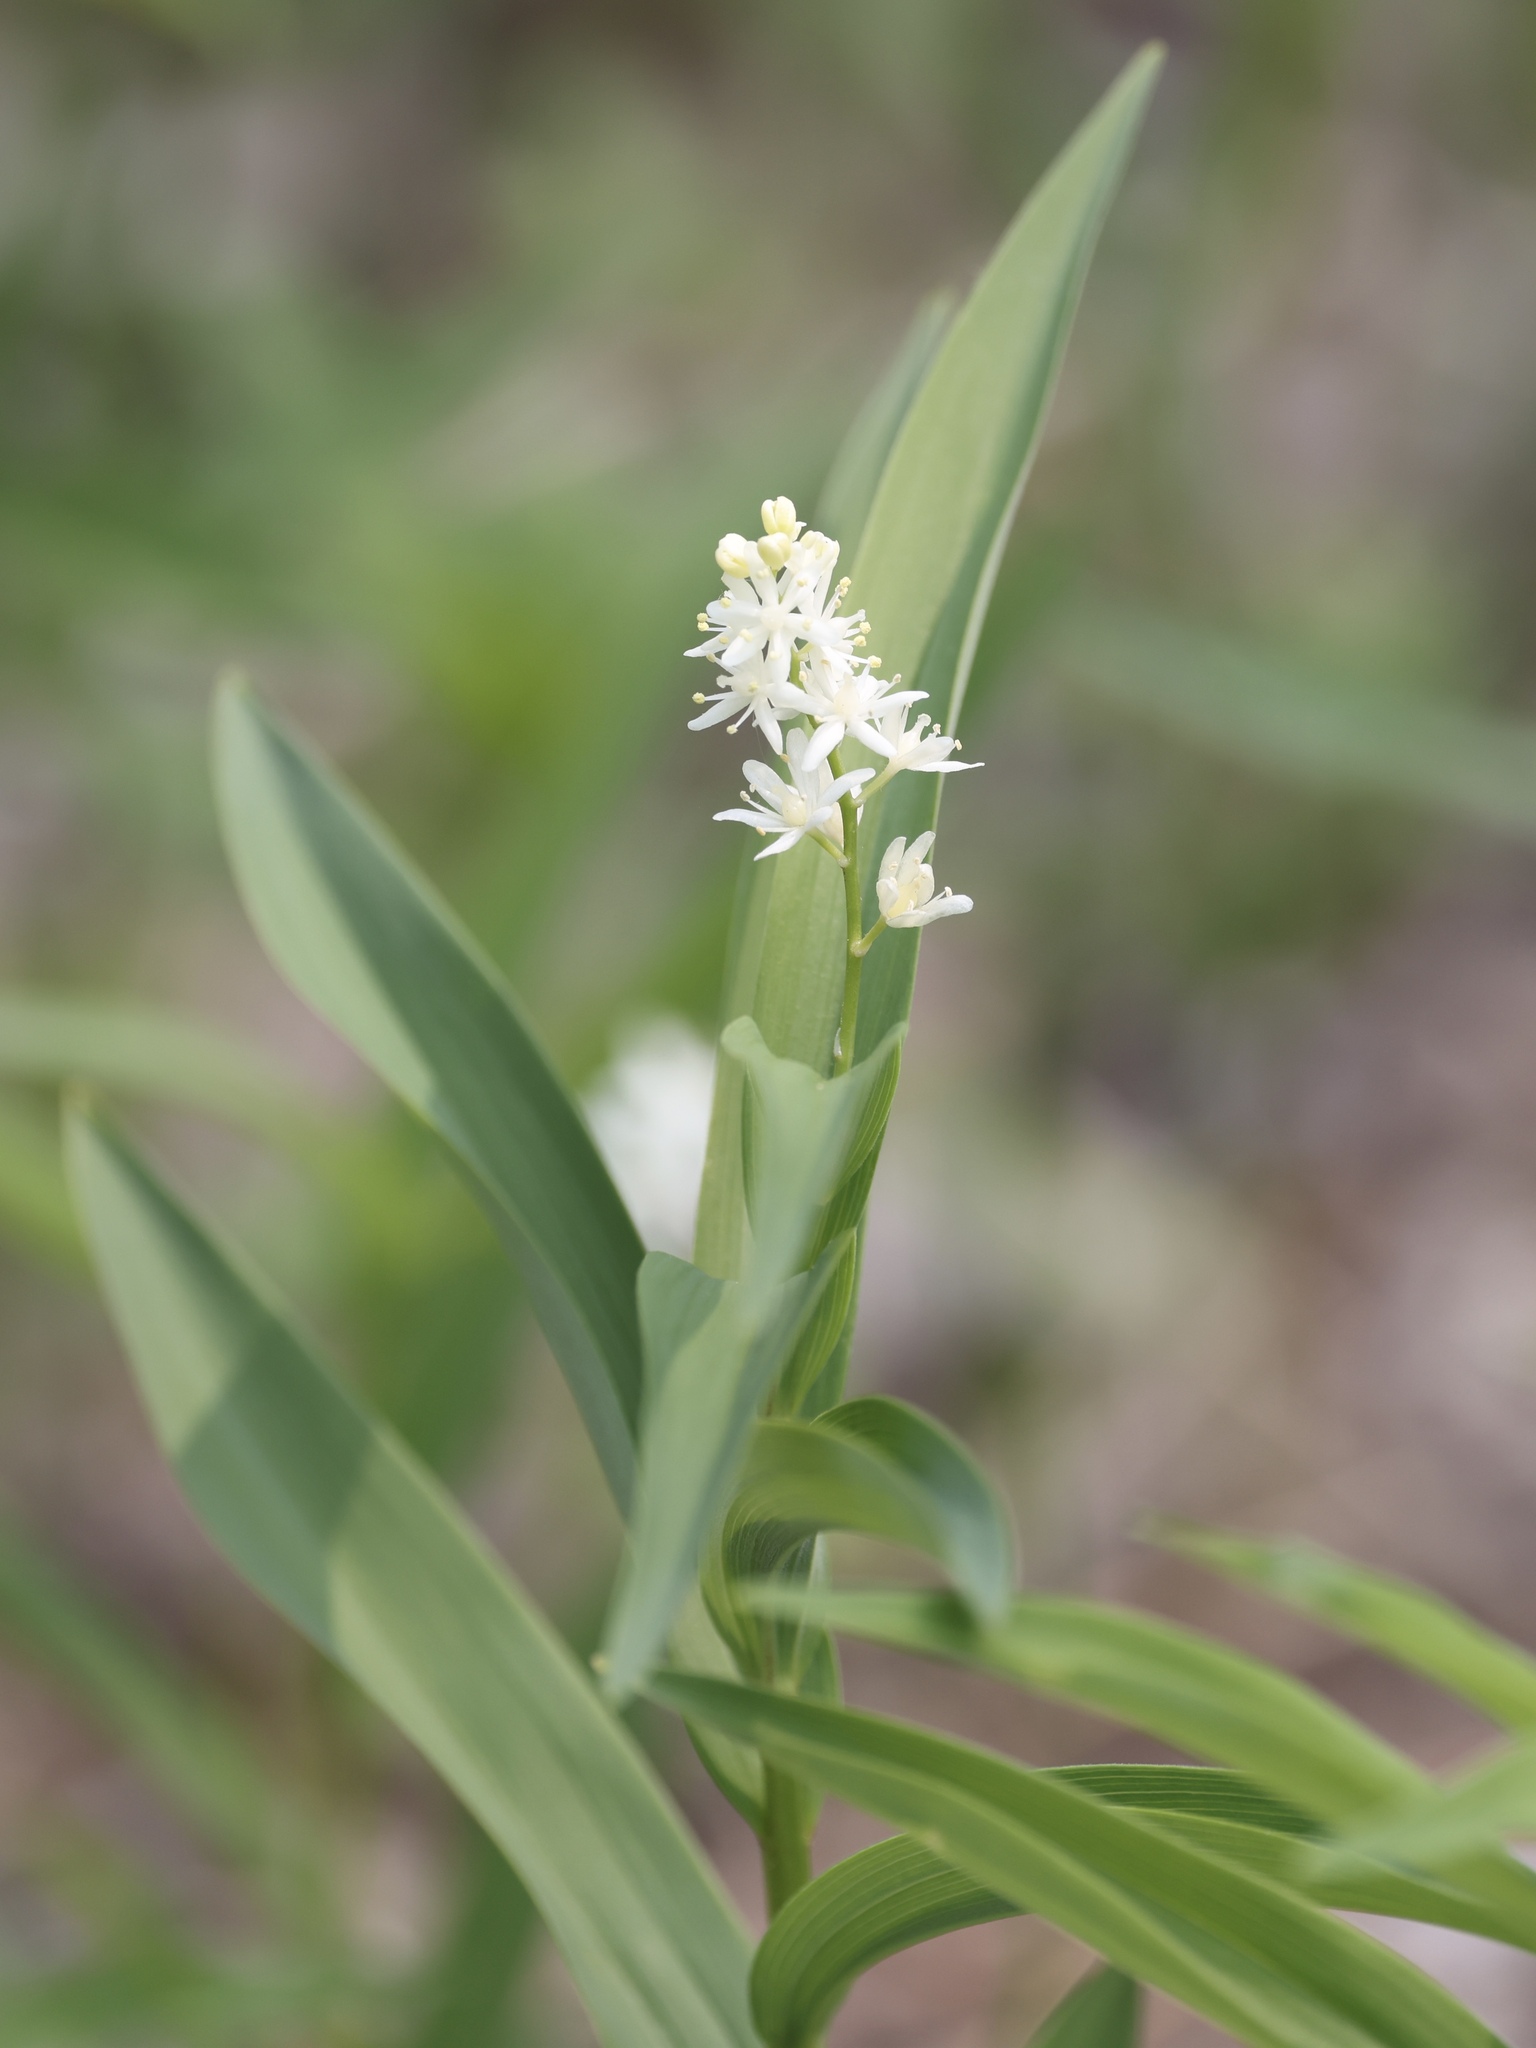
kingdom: Plantae
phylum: Tracheophyta
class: Liliopsida
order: Asparagales
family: Asparagaceae
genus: Maianthemum
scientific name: Maianthemum stellatum
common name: Little false solomon's seal
